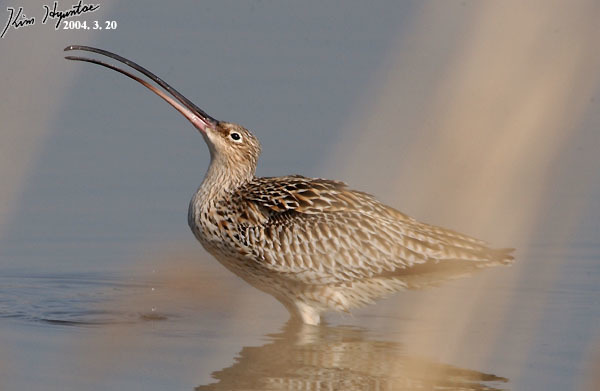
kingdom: Animalia
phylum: Chordata
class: Aves
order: Charadriiformes
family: Scolopacidae
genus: Numenius
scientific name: Numenius madagascariensis
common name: Far eastern curlew
